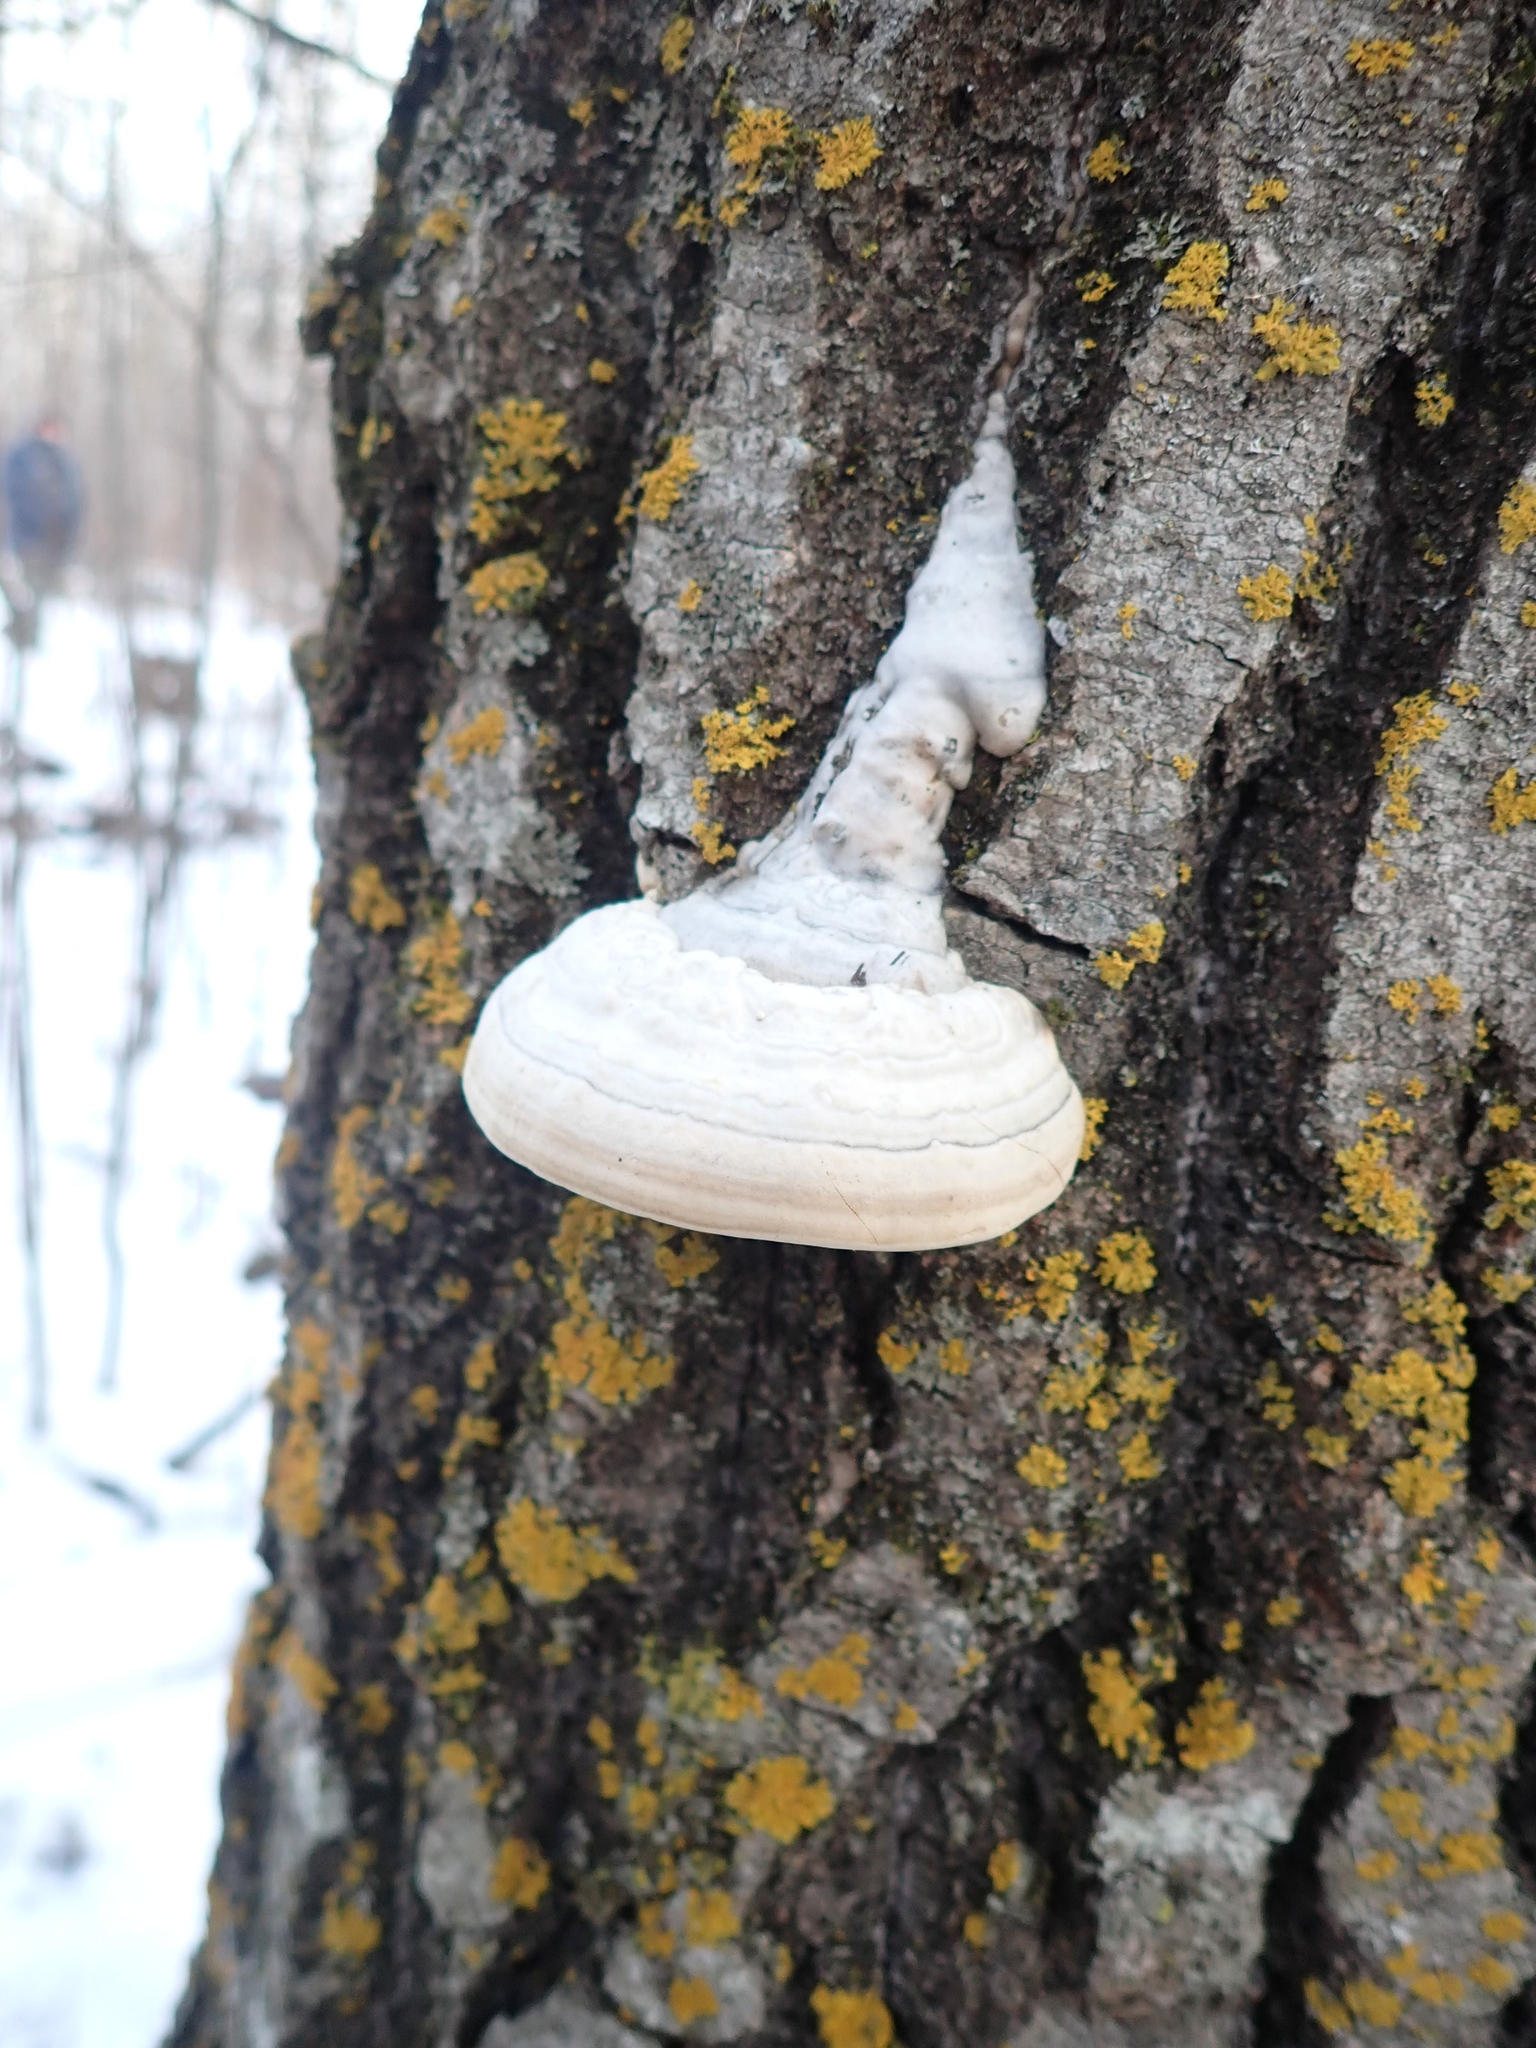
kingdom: Fungi
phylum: Basidiomycota
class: Agaricomycetes
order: Polyporales
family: Polyporaceae
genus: Fomes
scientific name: Fomes fomentarius
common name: Hoof fungus
